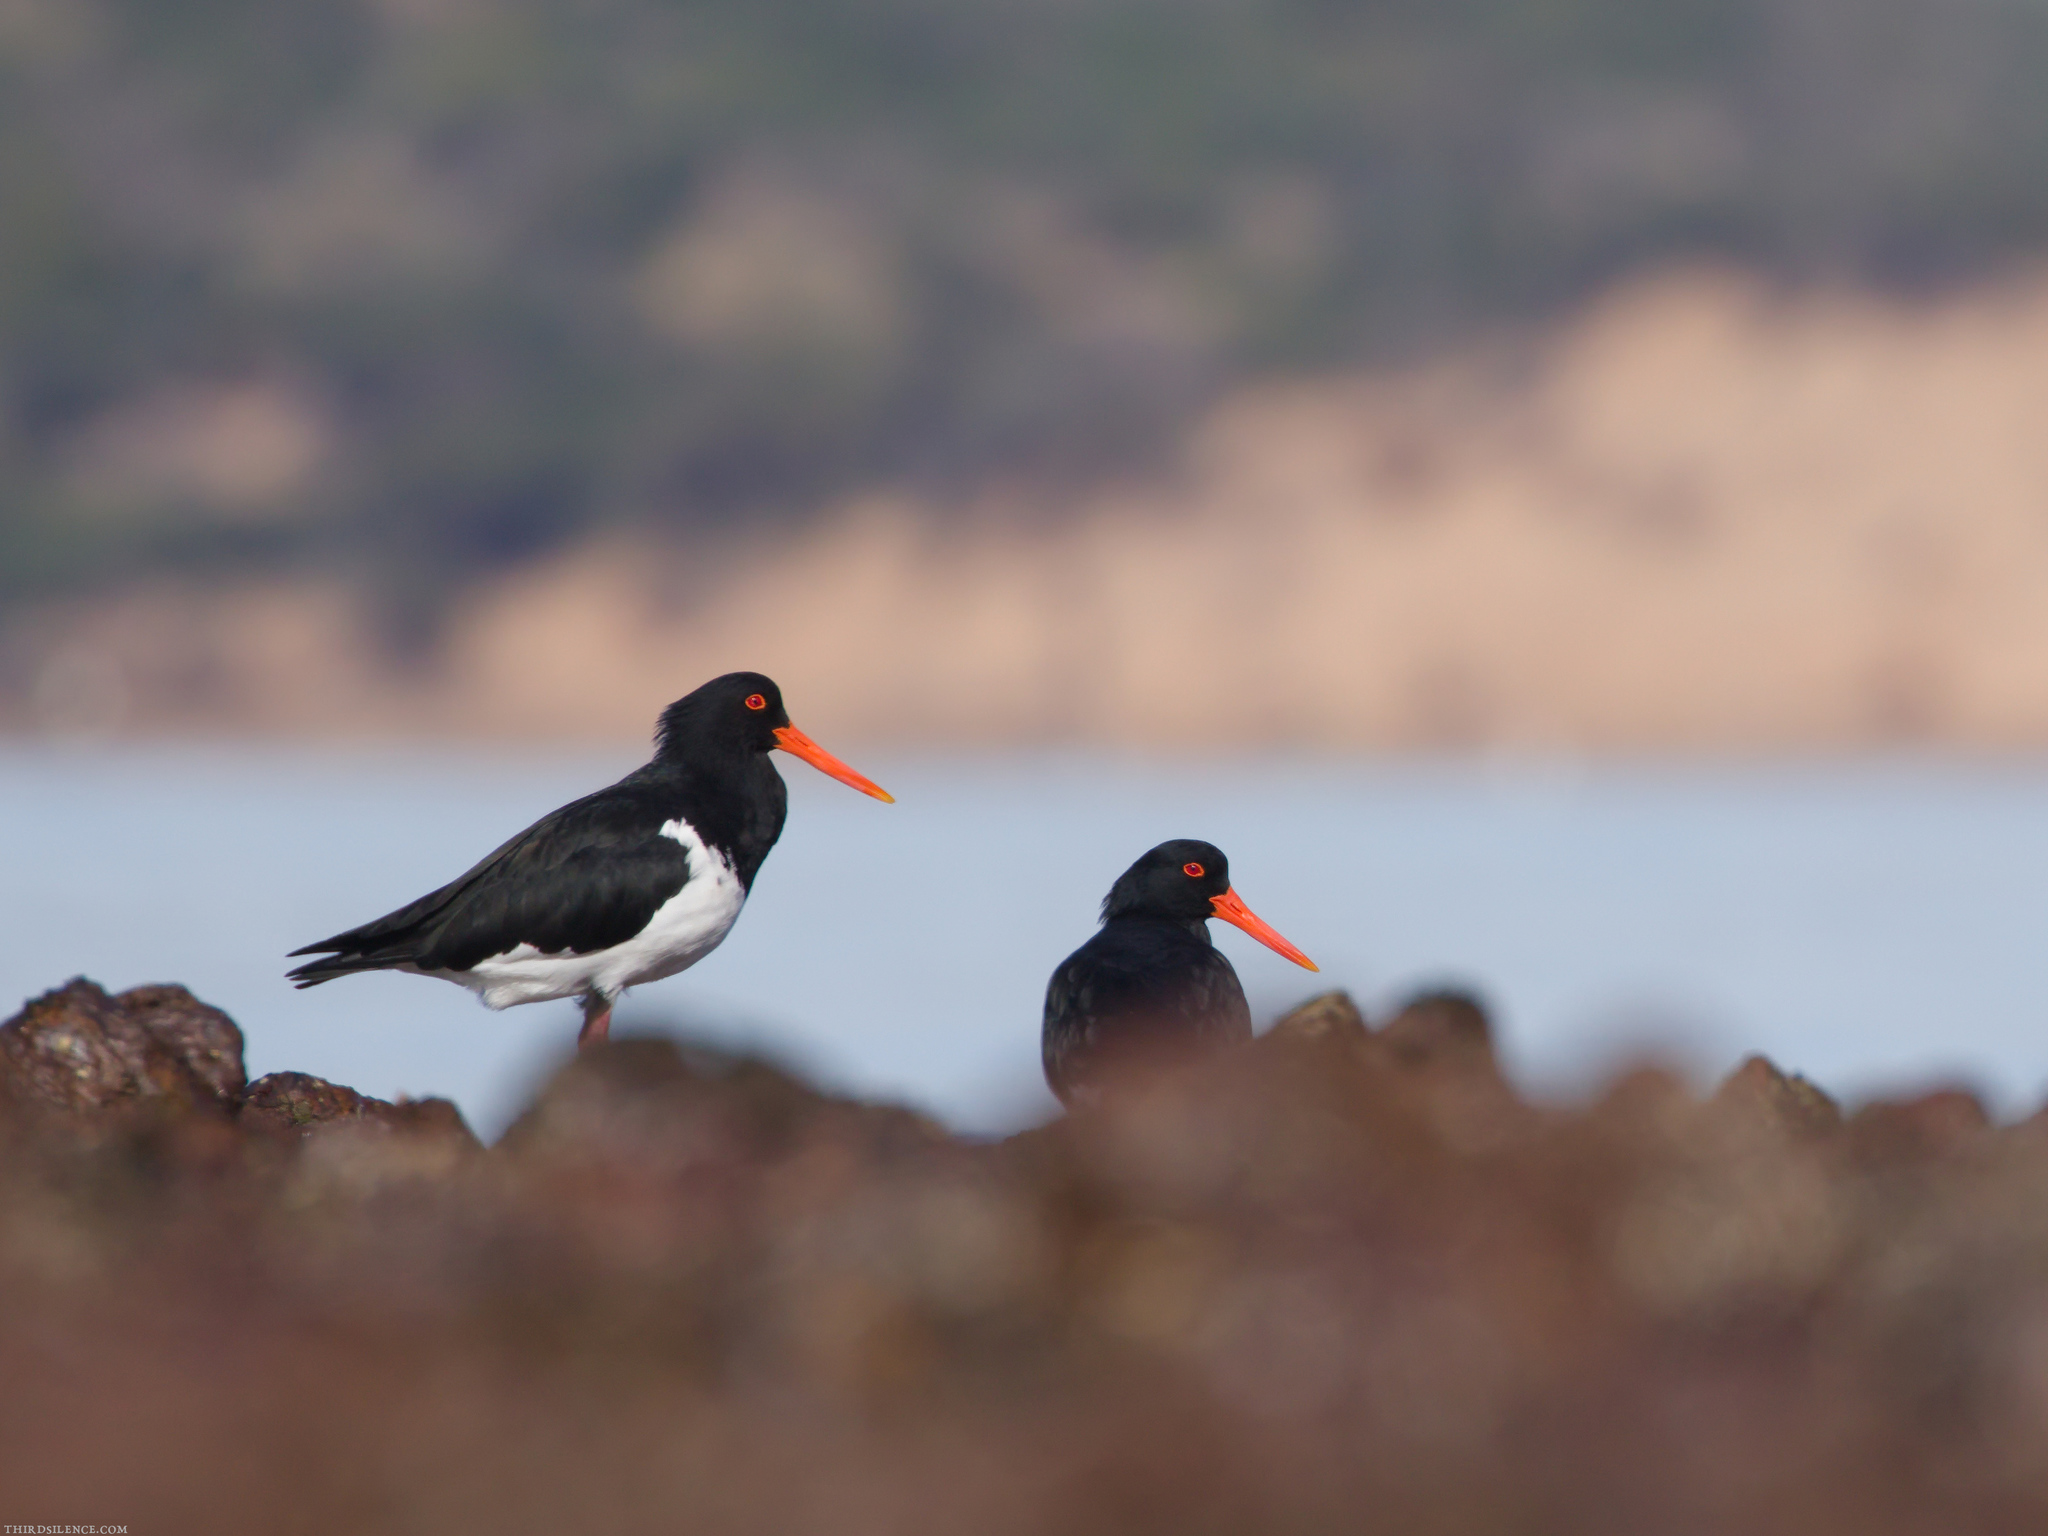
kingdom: Animalia
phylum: Chordata
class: Aves
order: Charadriiformes
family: Haematopodidae
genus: Haematopus
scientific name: Haematopus longirostris
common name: Pied oystercatcher
